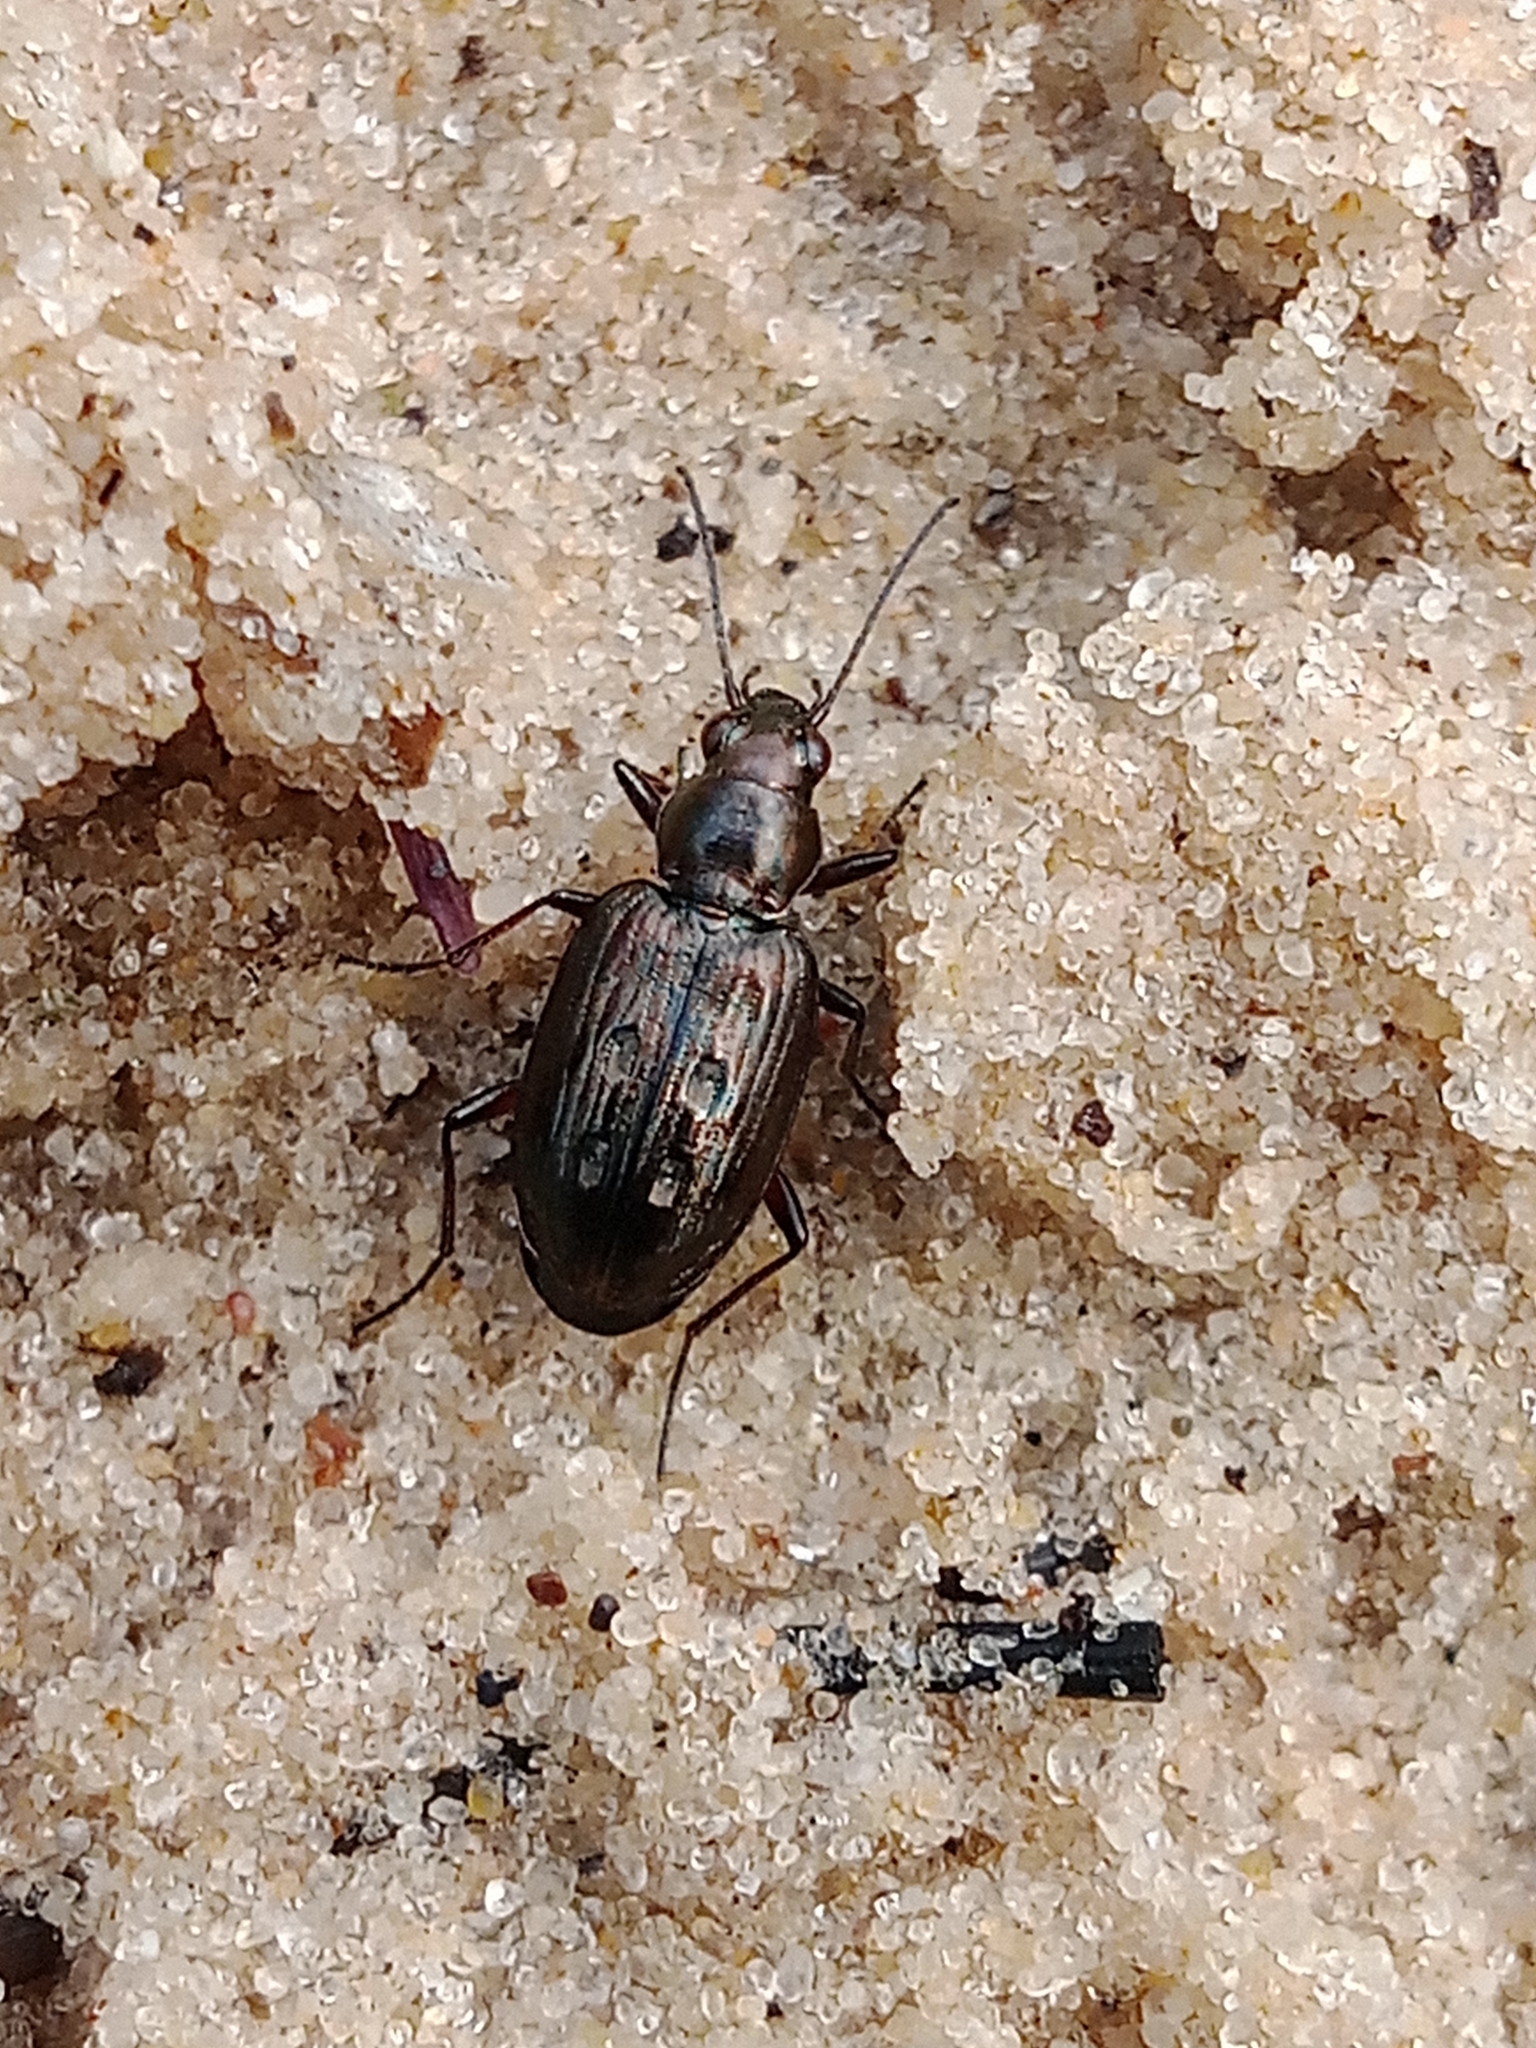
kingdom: Animalia
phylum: Arthropoda
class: Insecta
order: Coleoptera
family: Carabidae
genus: Bembidion
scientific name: Bembidion litorale
